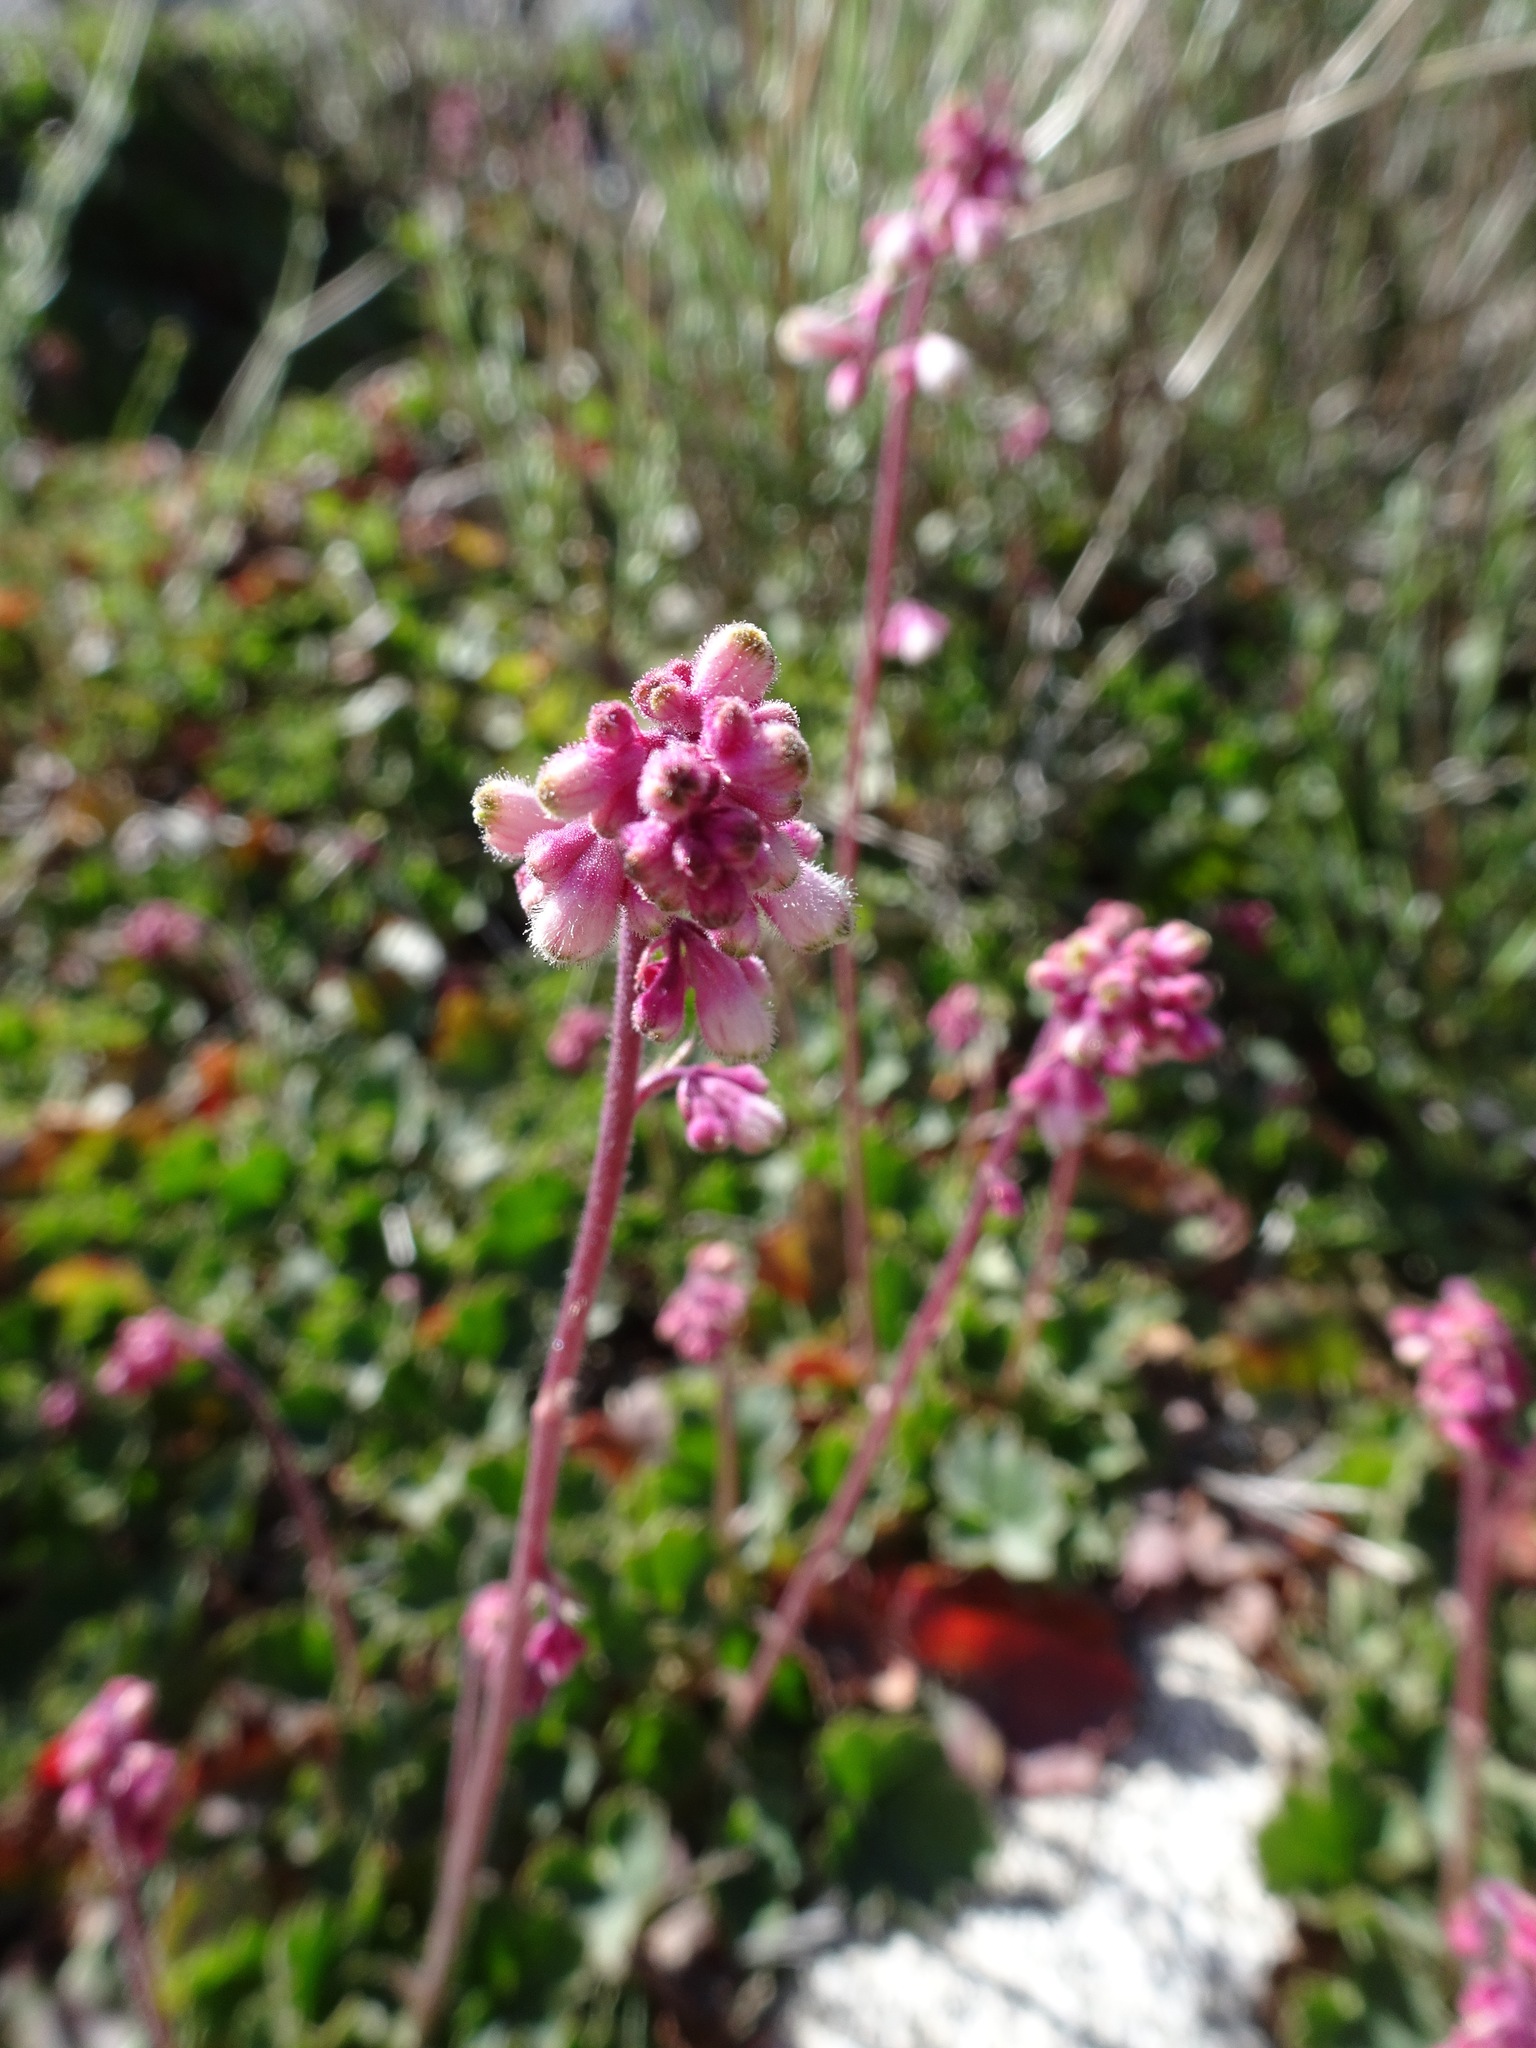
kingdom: Plantae
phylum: Tracheophyta
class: Magnoliopsida
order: Saxifragales
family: Saxifragaceae
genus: Heuchera
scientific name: Heuchera elegans
